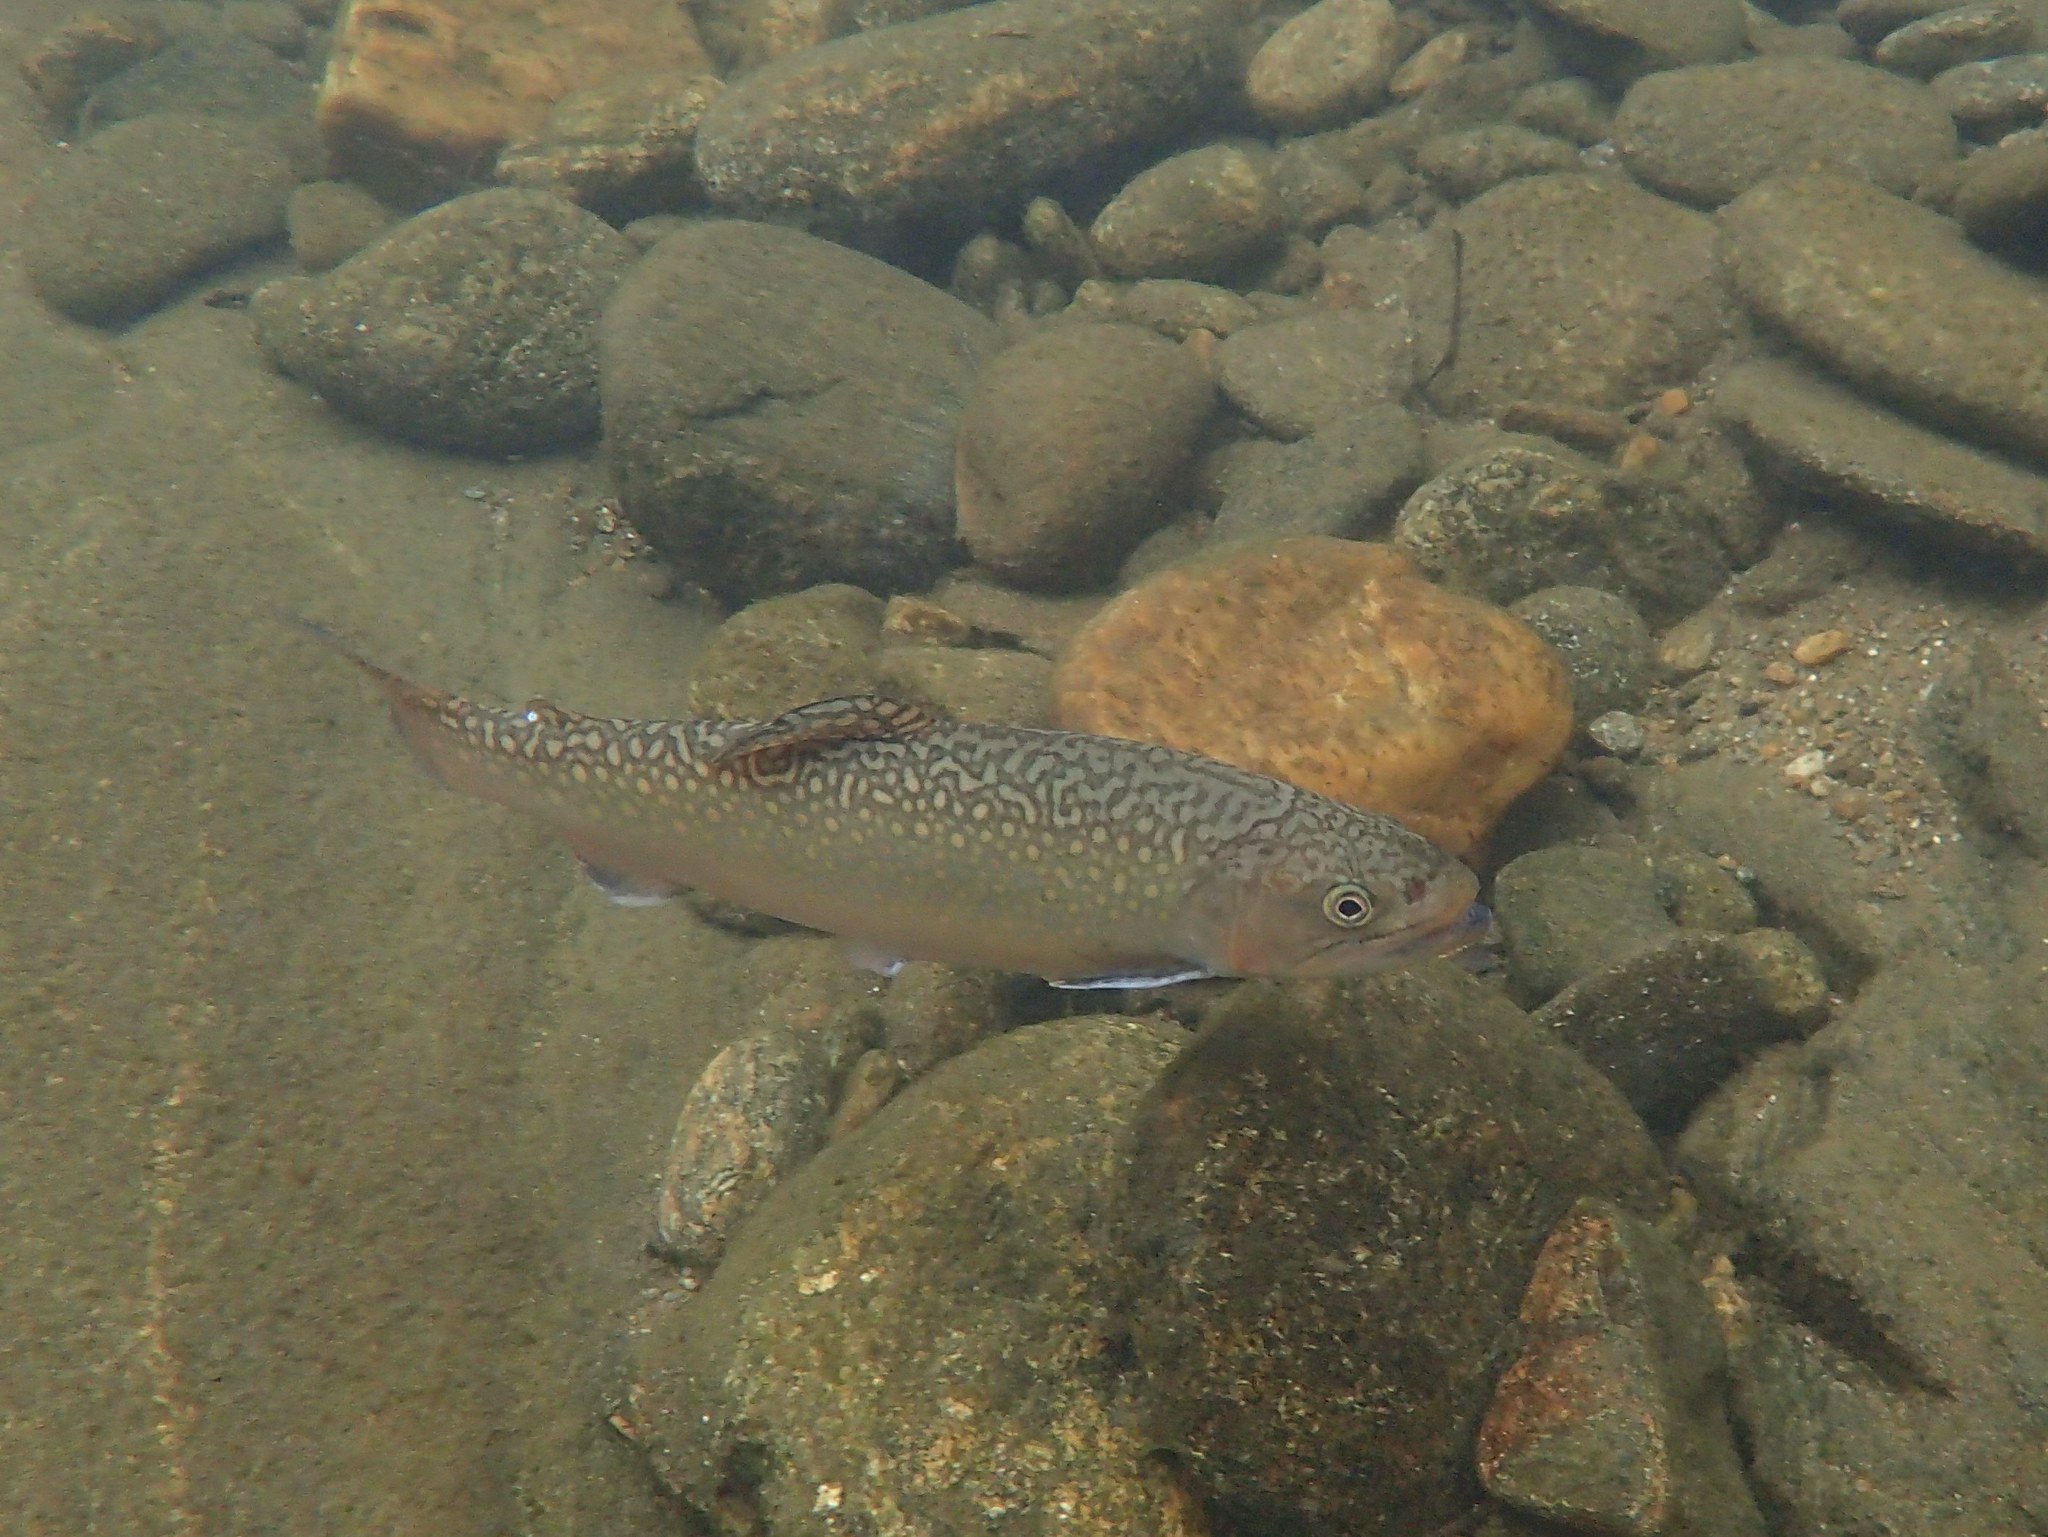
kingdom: Animalia
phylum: Chordata
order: Salmoniformes
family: Salmonidae
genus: Salvelinus
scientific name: Salvelinus fontinalis
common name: Brook trout
